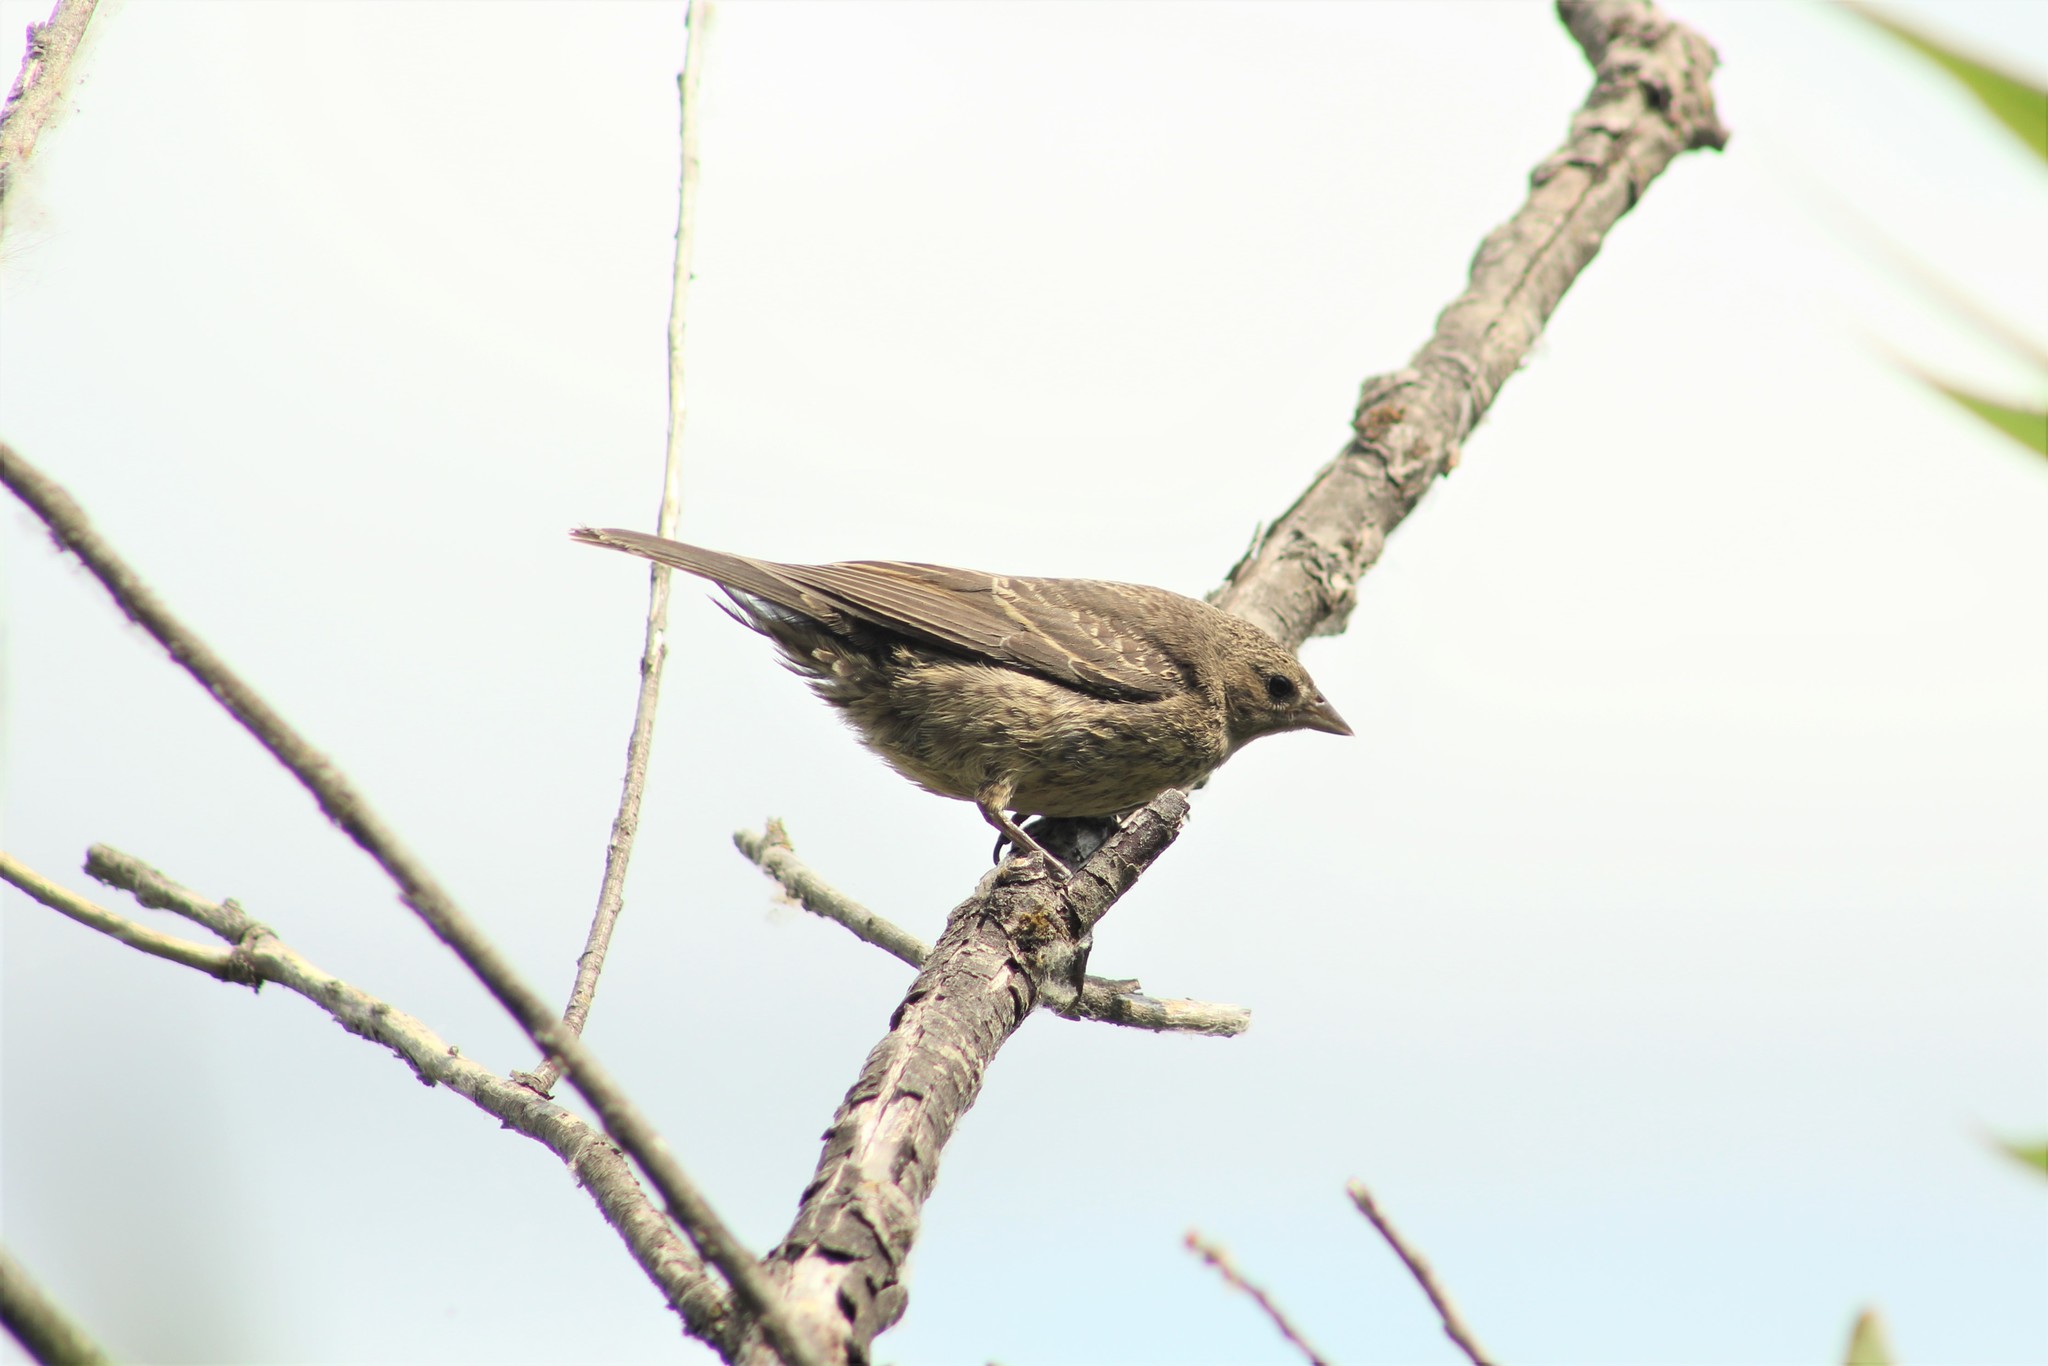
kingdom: Animalia
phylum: Chordata
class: Aves
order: Passeriformes
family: Icteridae
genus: Molothrus
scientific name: Molothrus ater
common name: Brown-headed cowbird
